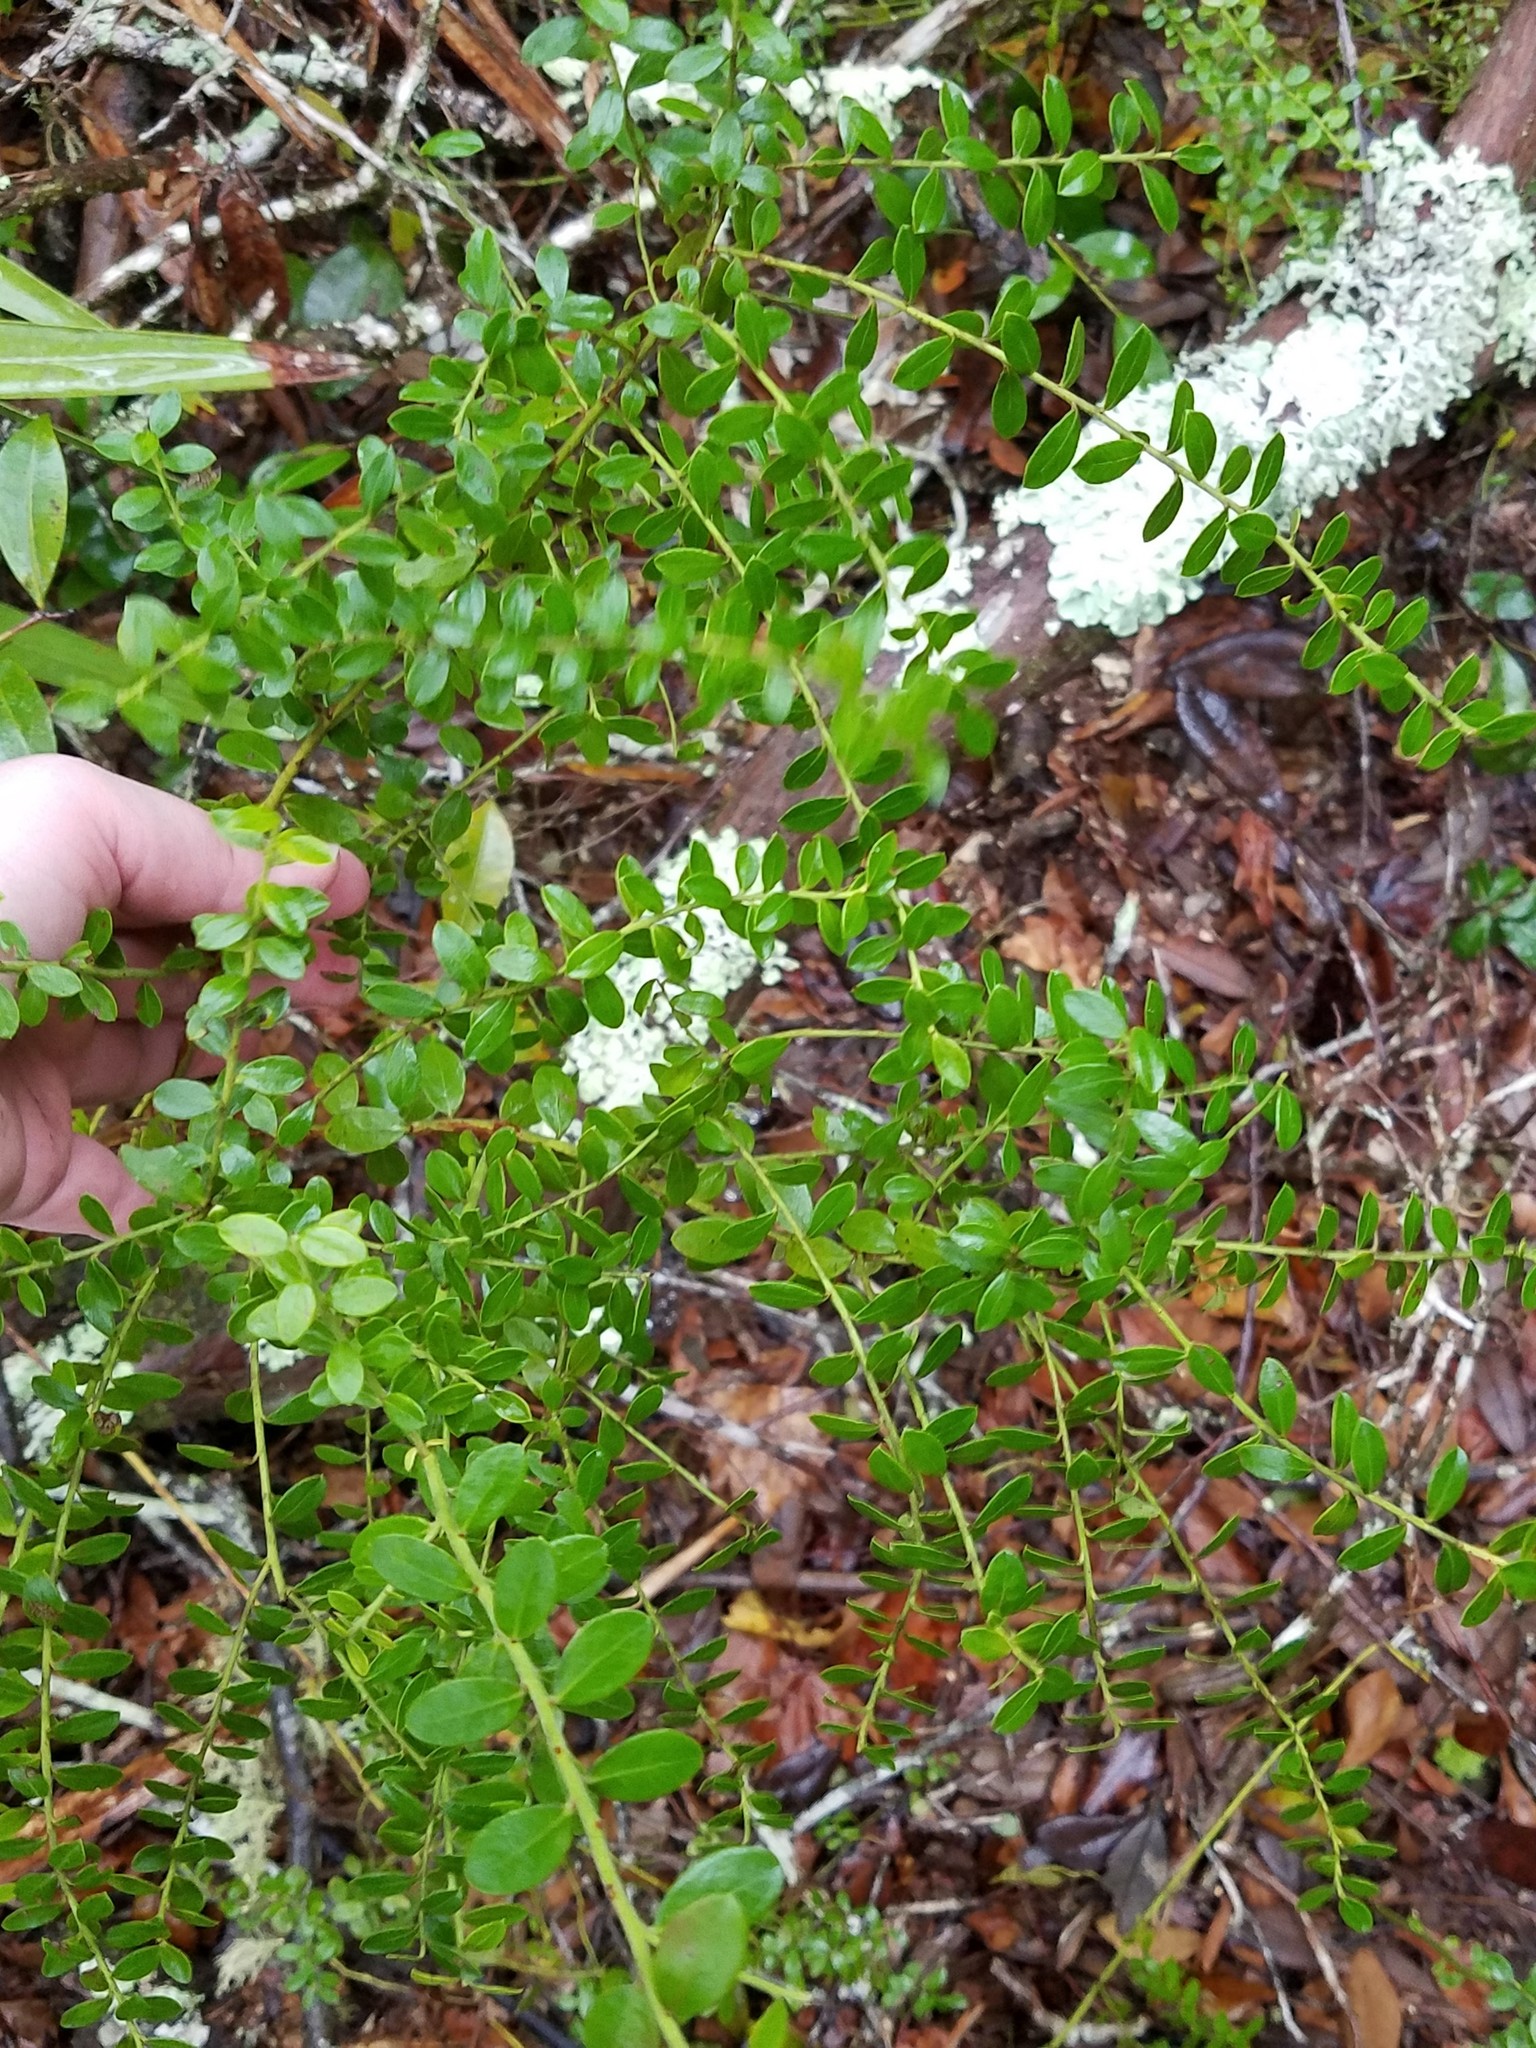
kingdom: Plantae
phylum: Tracheophyta
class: Magnoliopsida
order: Ericales
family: Ericaceae
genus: Vaccinium
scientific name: Vaccinium myrsinites
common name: Evergreen blueberry
